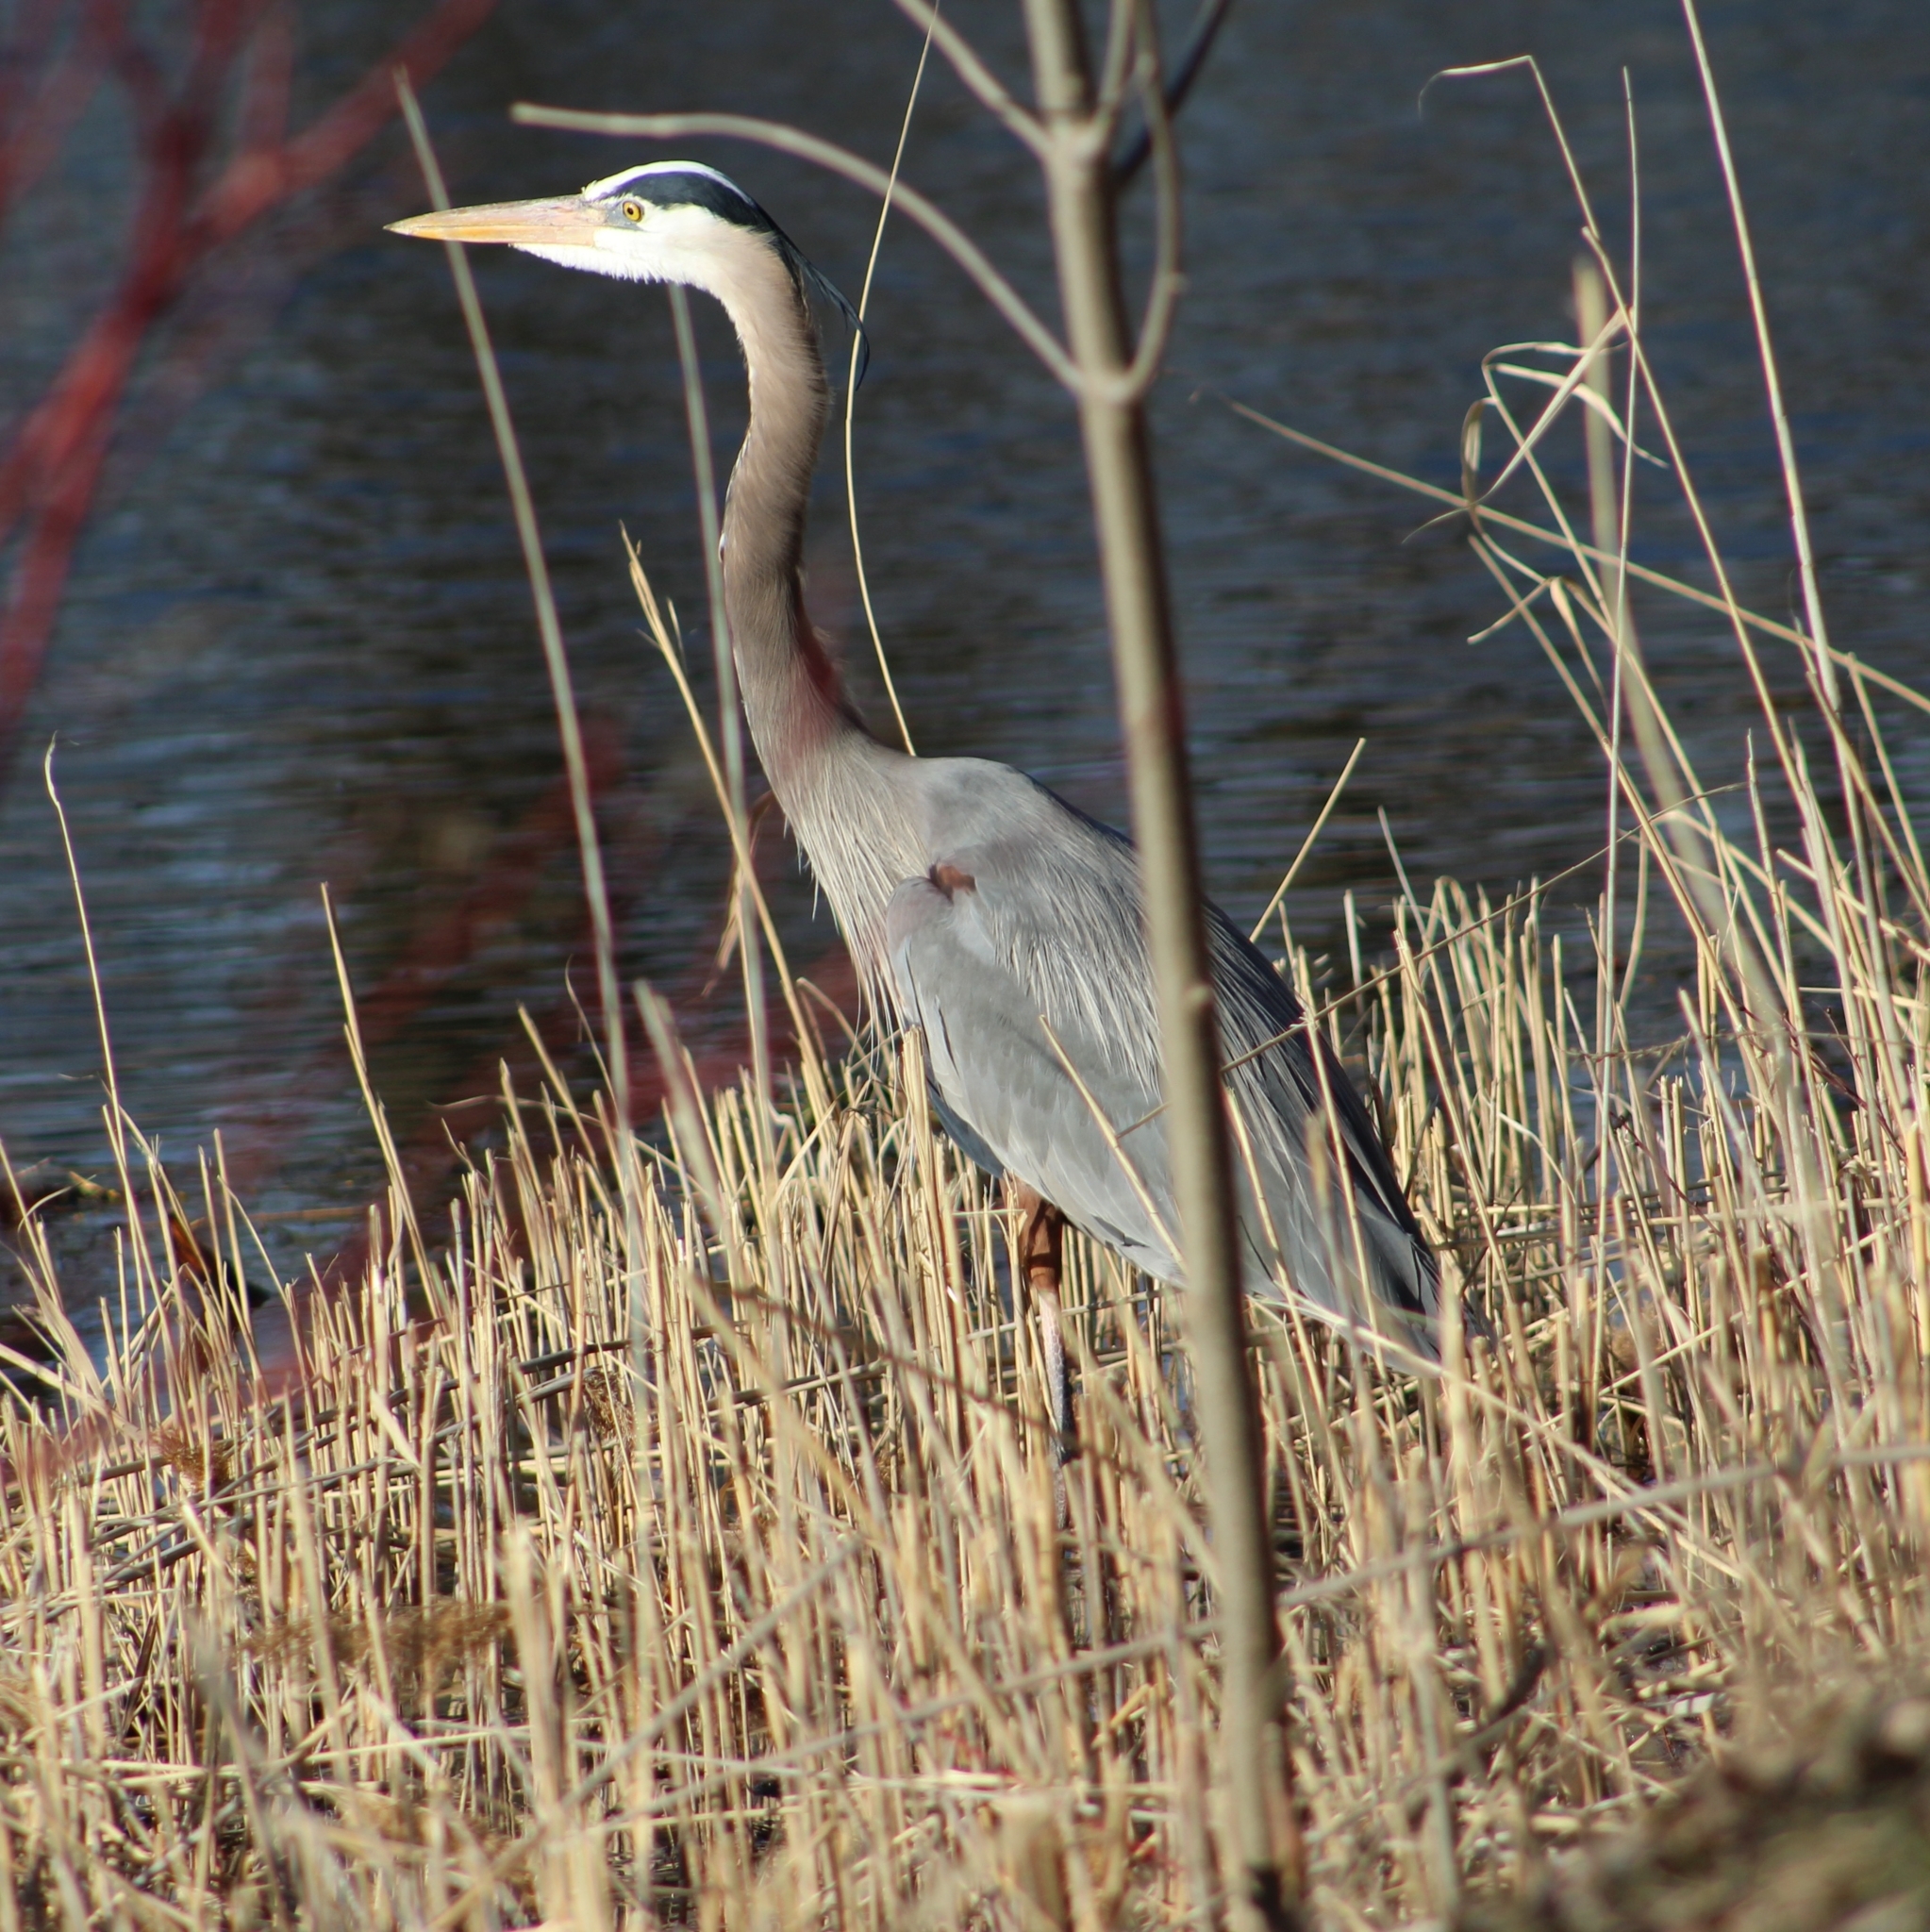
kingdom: Animalia
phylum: Chordata
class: Aves
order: Pelecaniformes
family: Ardeidae
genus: Ardea
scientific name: Ardea herodias
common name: Great blue heron
